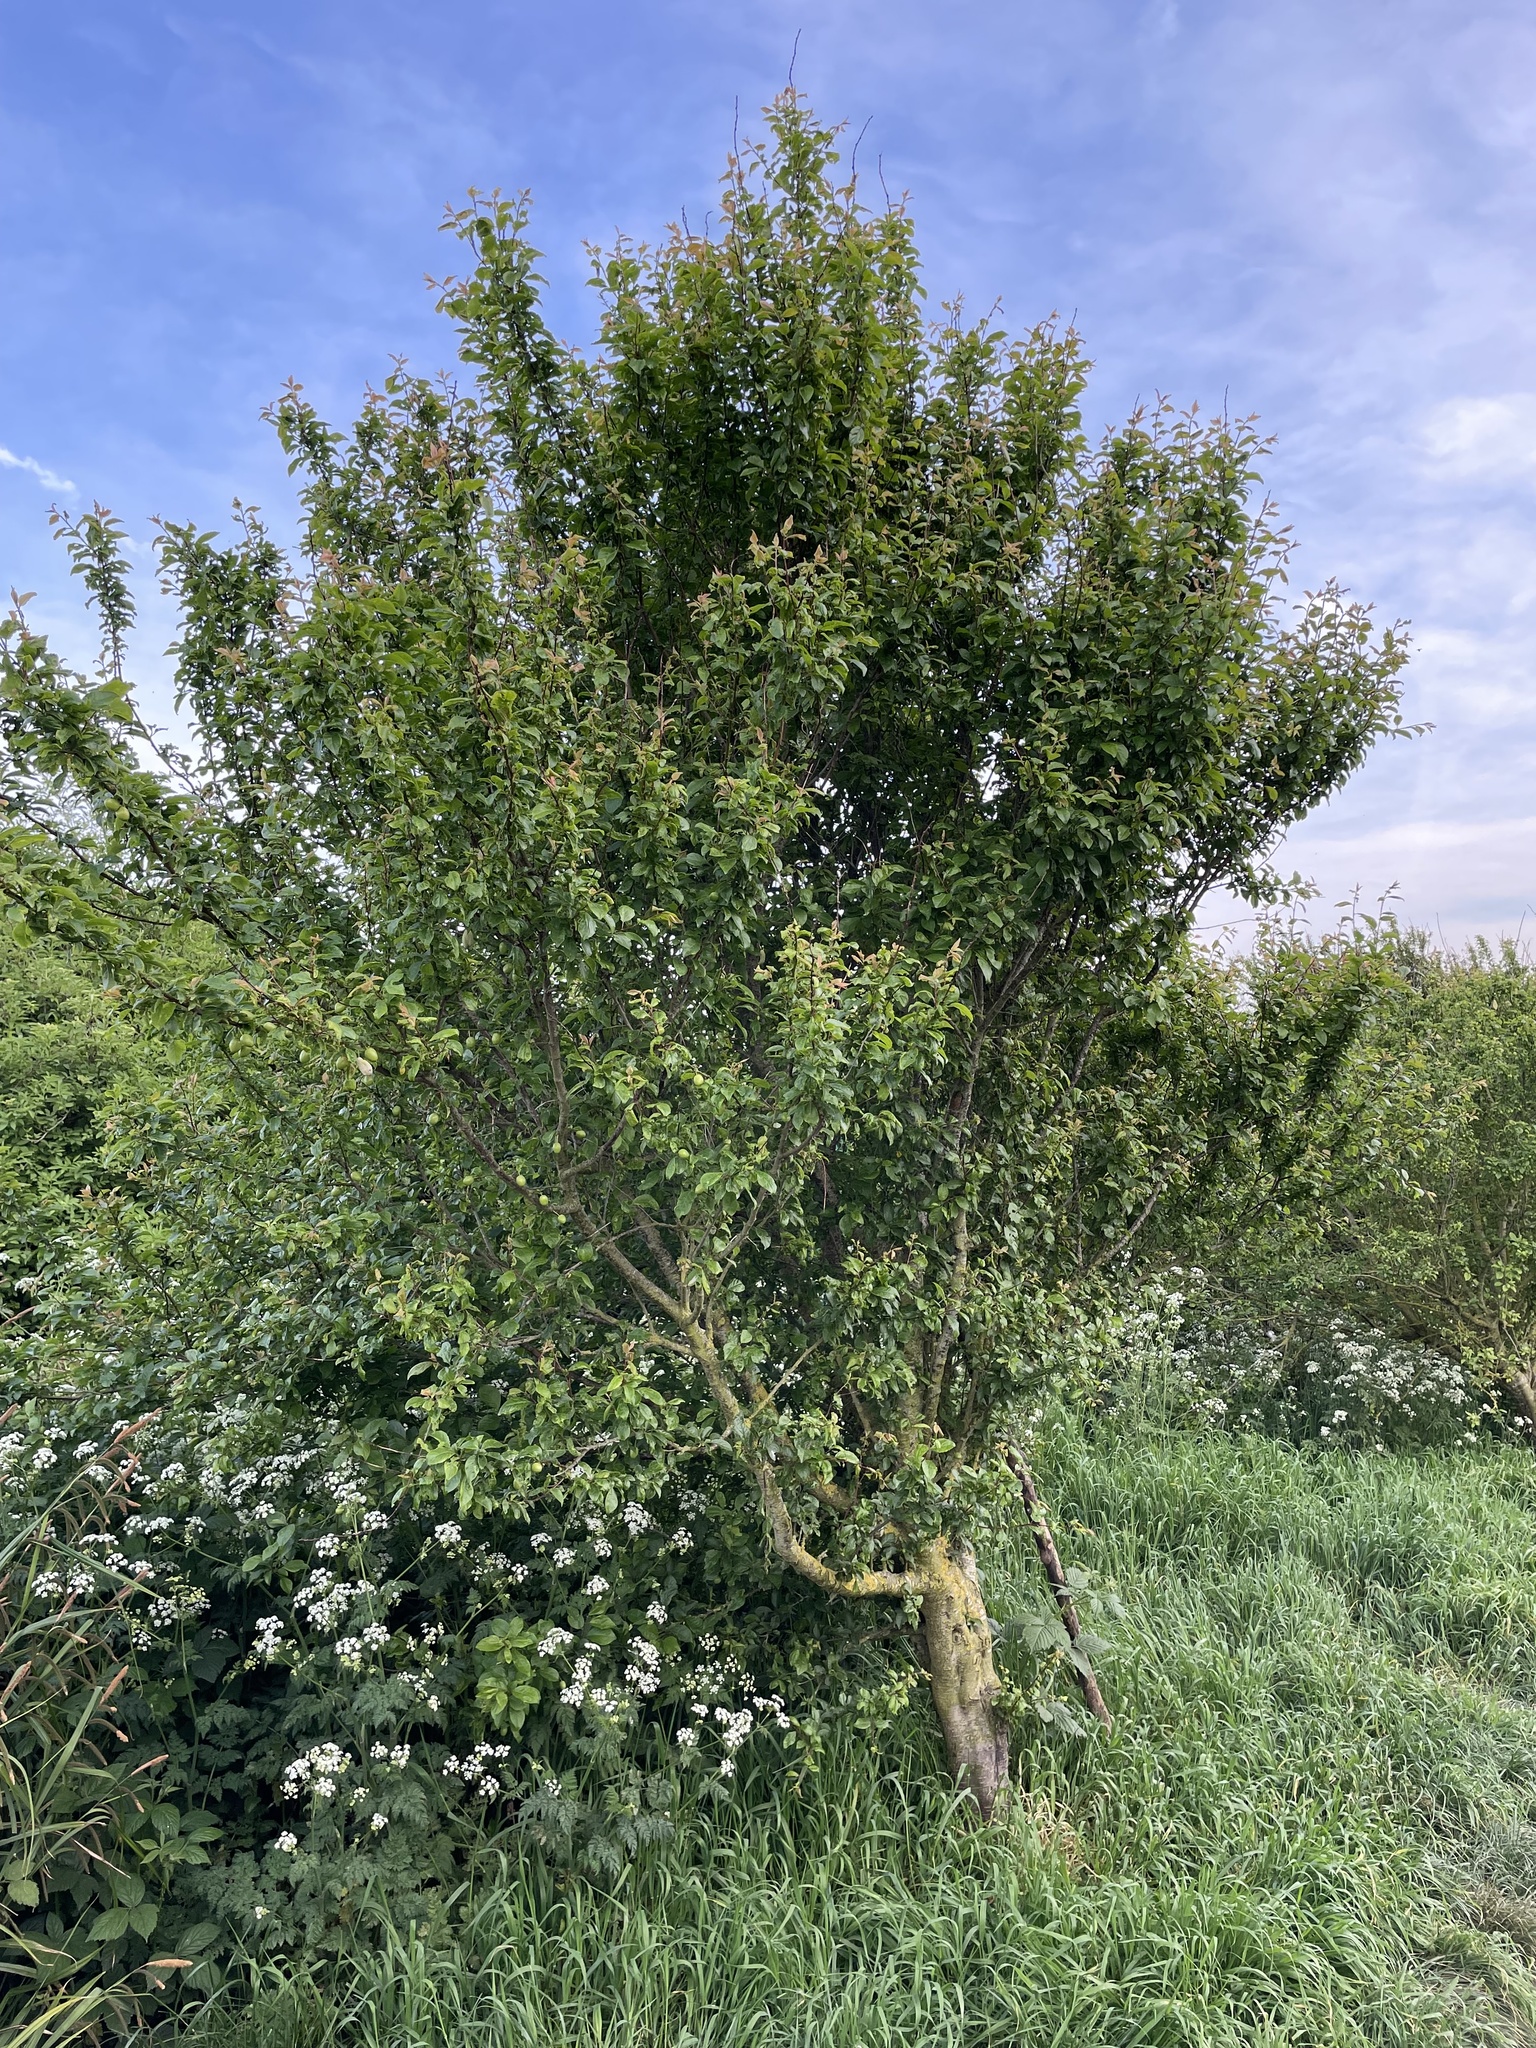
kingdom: Fungi
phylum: Ascomycota
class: Taphrinomycetes
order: Taphrinales
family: Taphrinaceae
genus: Taphrina
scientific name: Taphrina pruni
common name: Pocket plum
